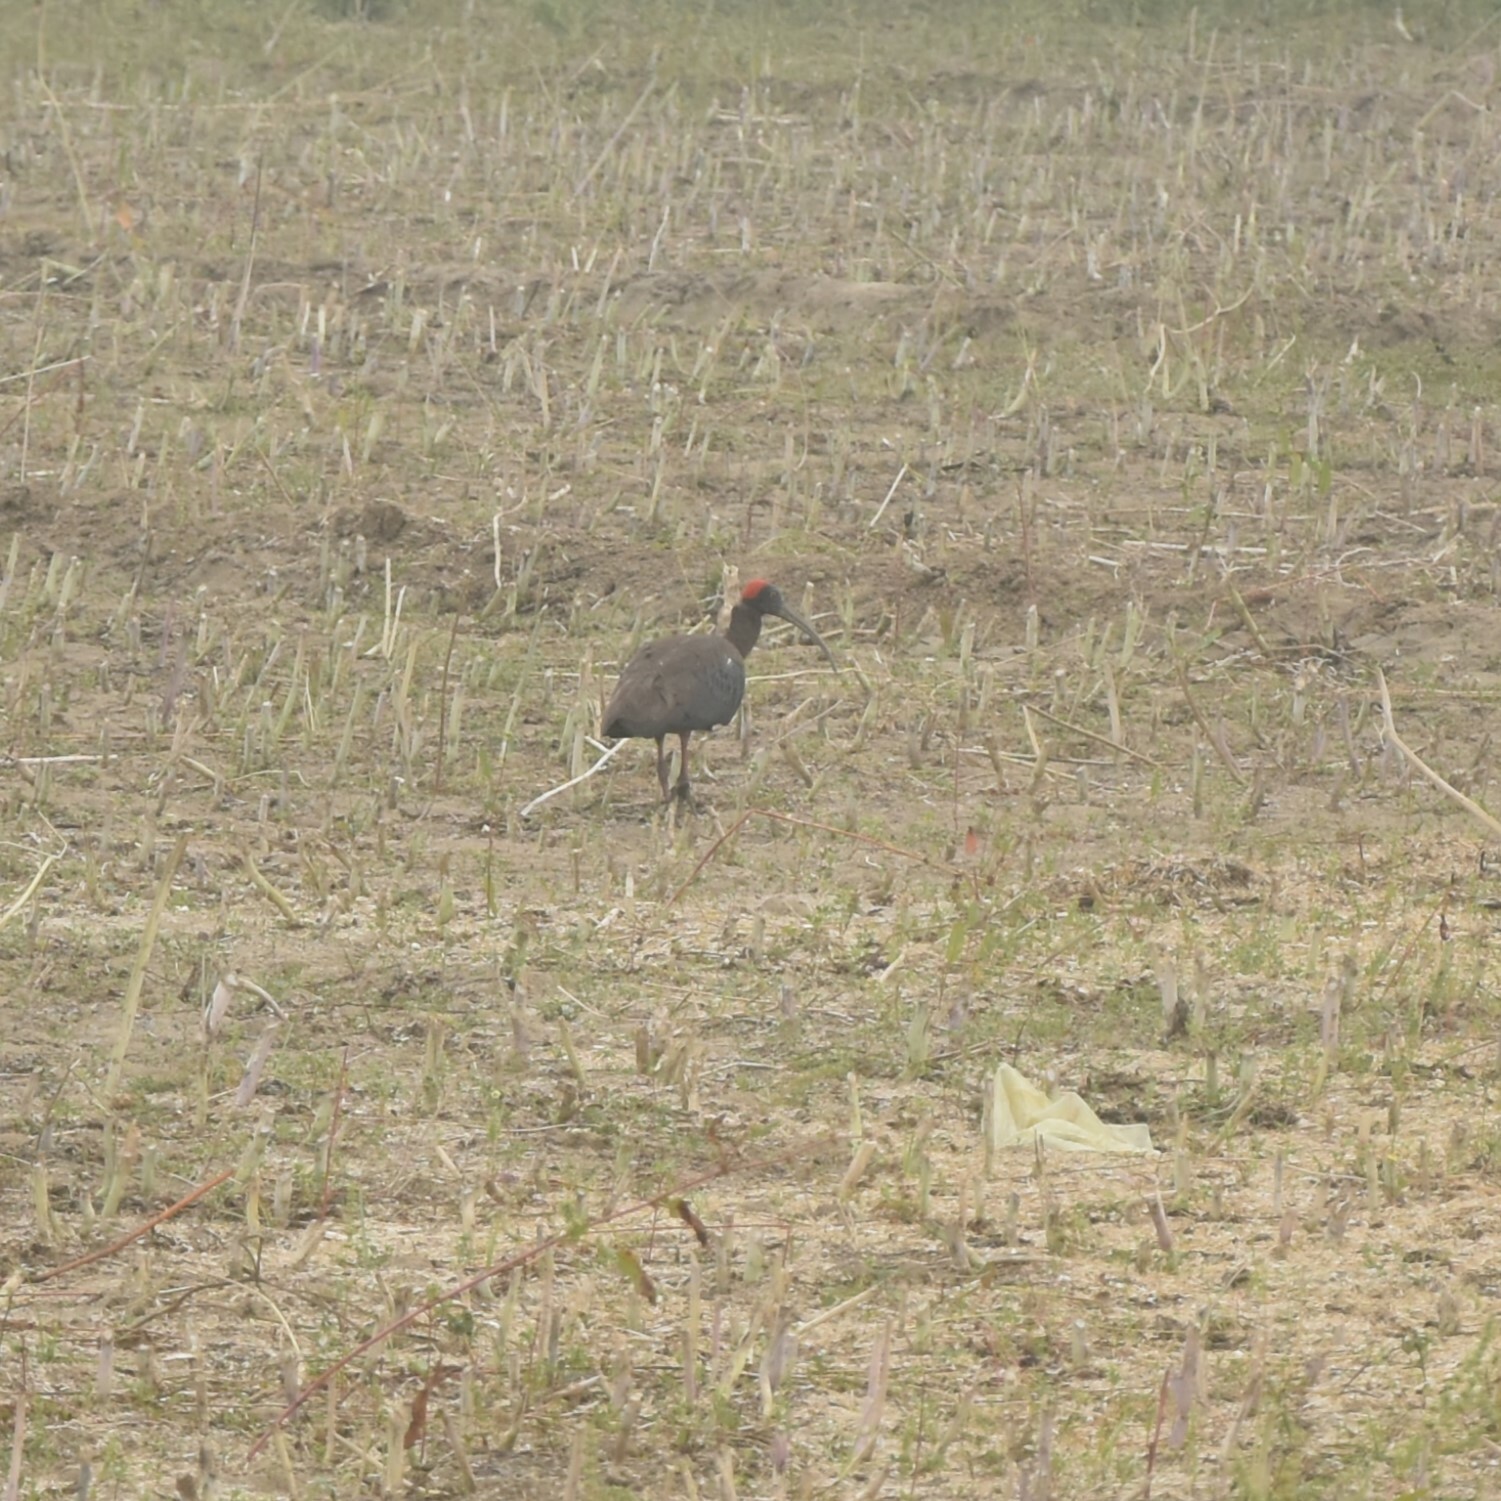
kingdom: Animalia
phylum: Chordata
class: Aves
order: Pelecaniformes
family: Threskiornithidae
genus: Pseudibis
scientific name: Pseudibis papillosa
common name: Red-naped ibis
